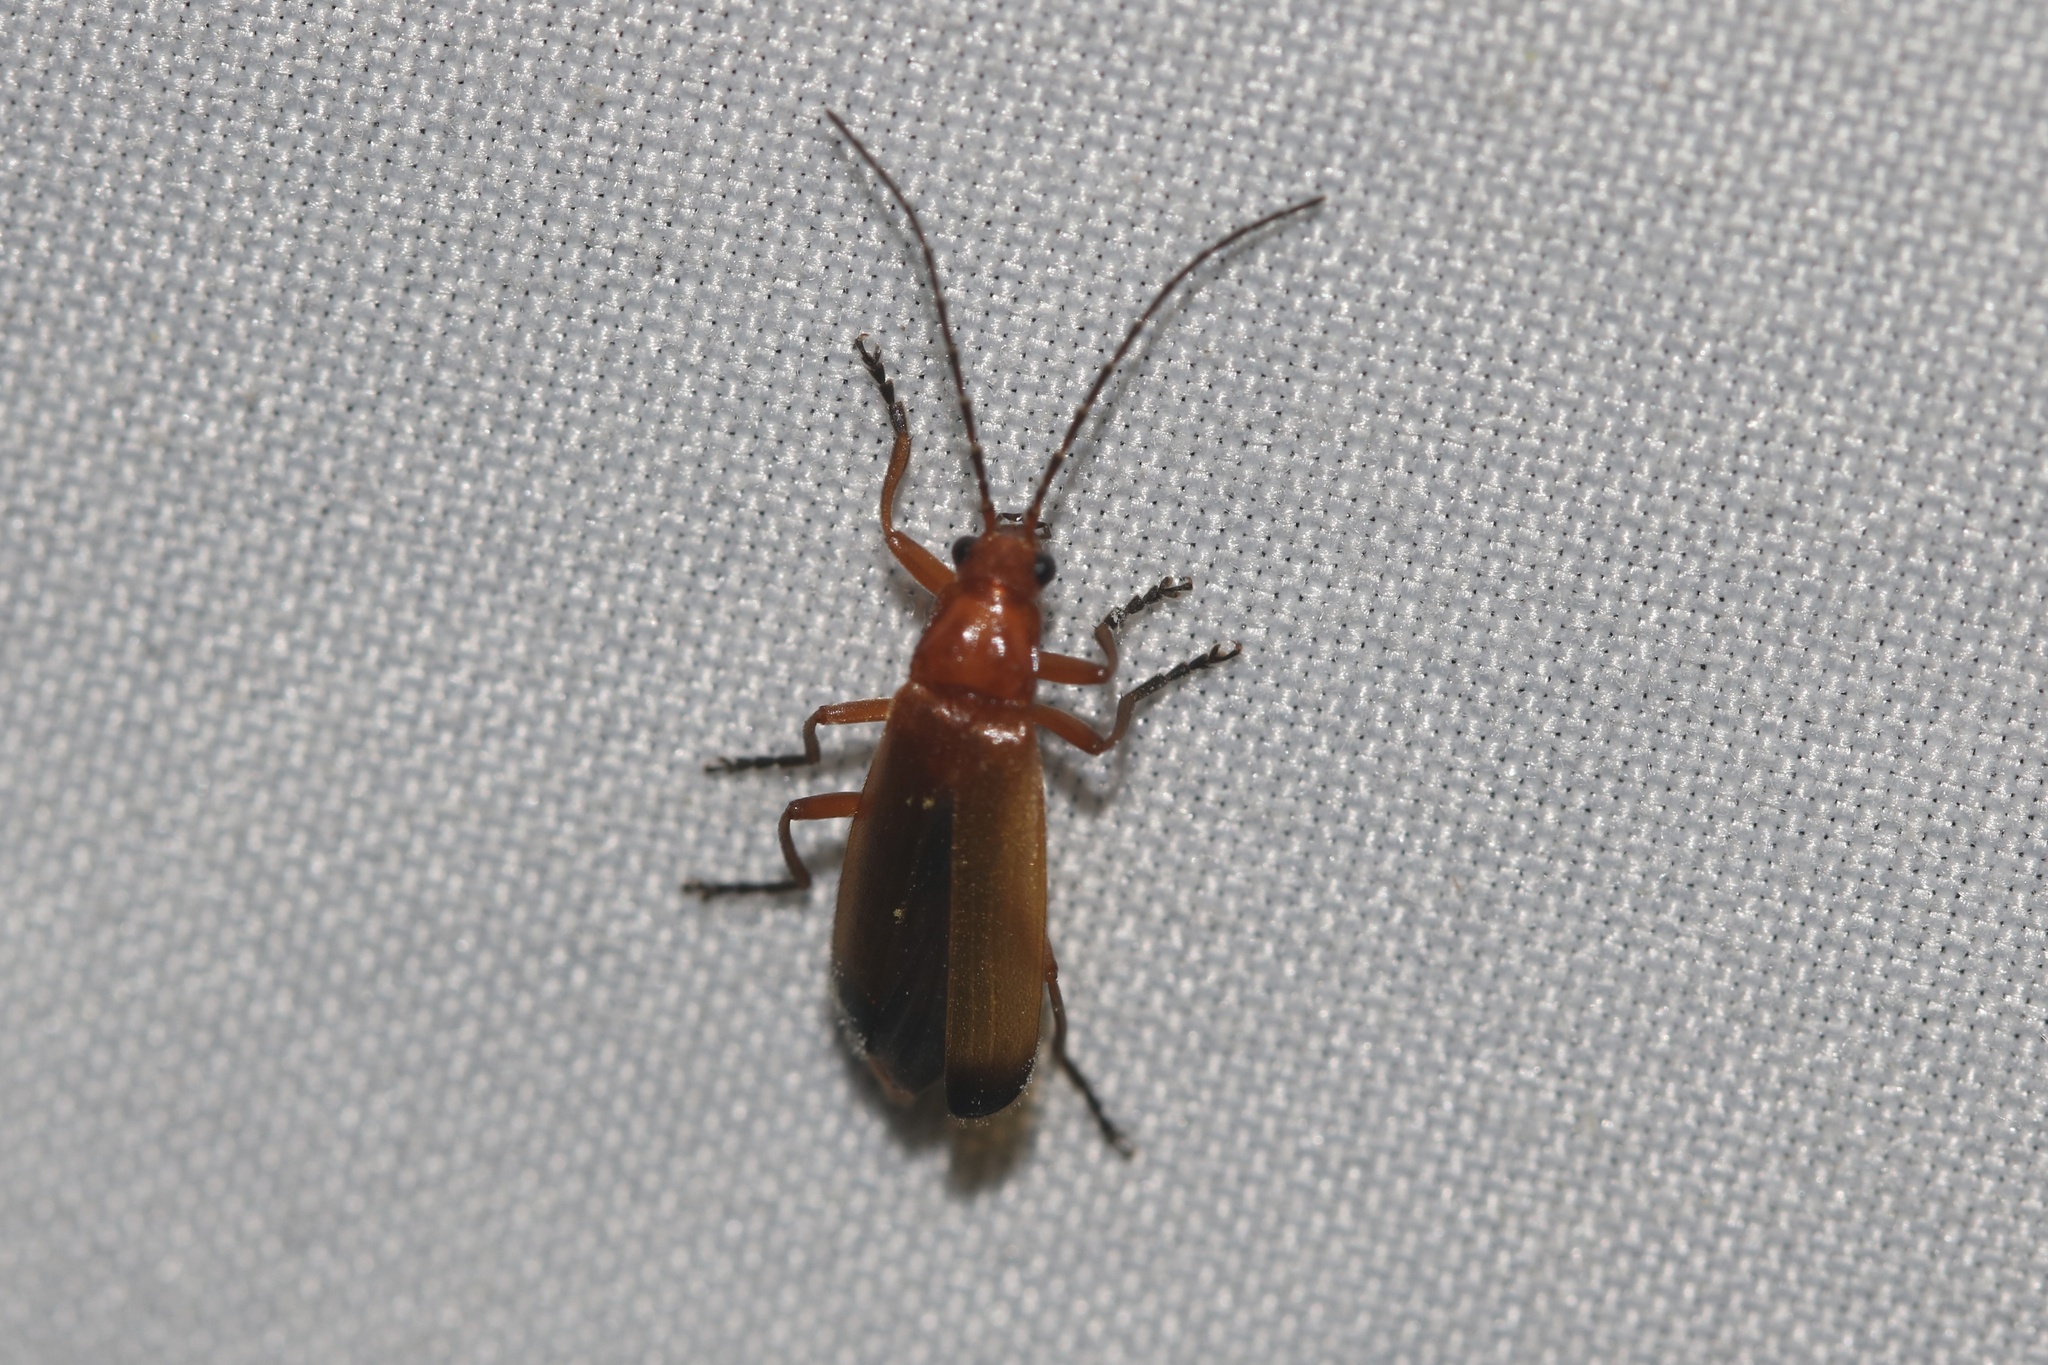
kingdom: Animalia
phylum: Arthropoda
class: Insecta
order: Coleoptera
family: Cantharidae
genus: Rhagonycha
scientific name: Rhagonycha fulva
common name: Common red soldier beetle
